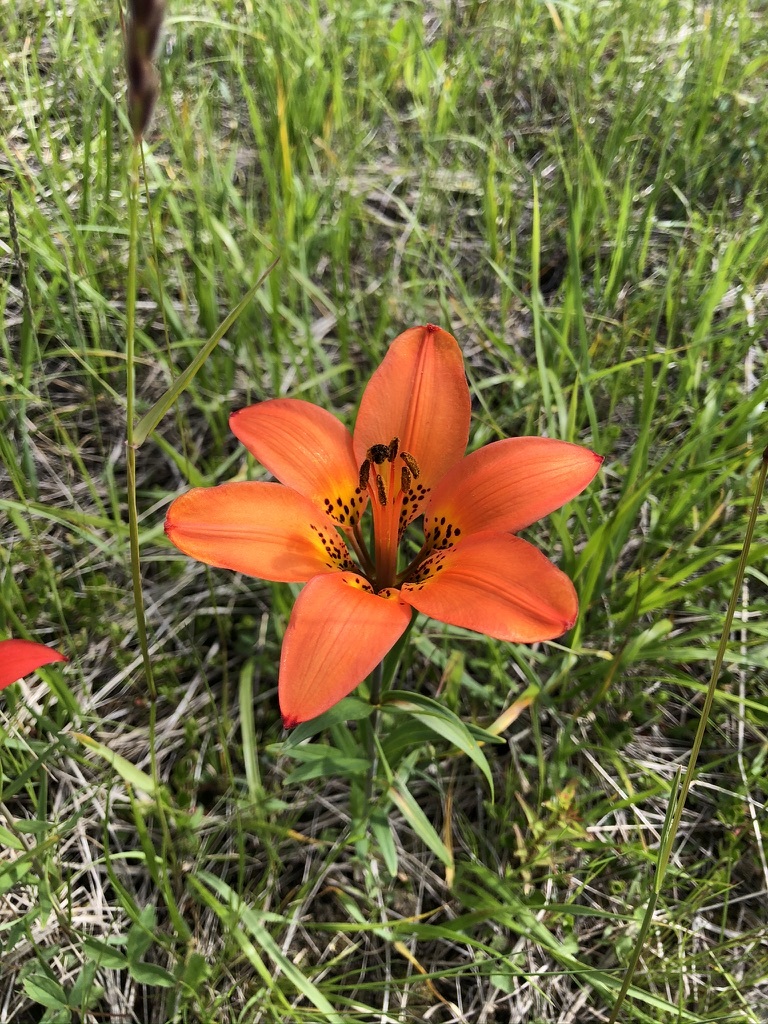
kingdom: Plantae
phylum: Tracheophyta
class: Liliopsida
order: Liliales
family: Liliaceae
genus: Lilium
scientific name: Lilium philadelphicum
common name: Red lily
